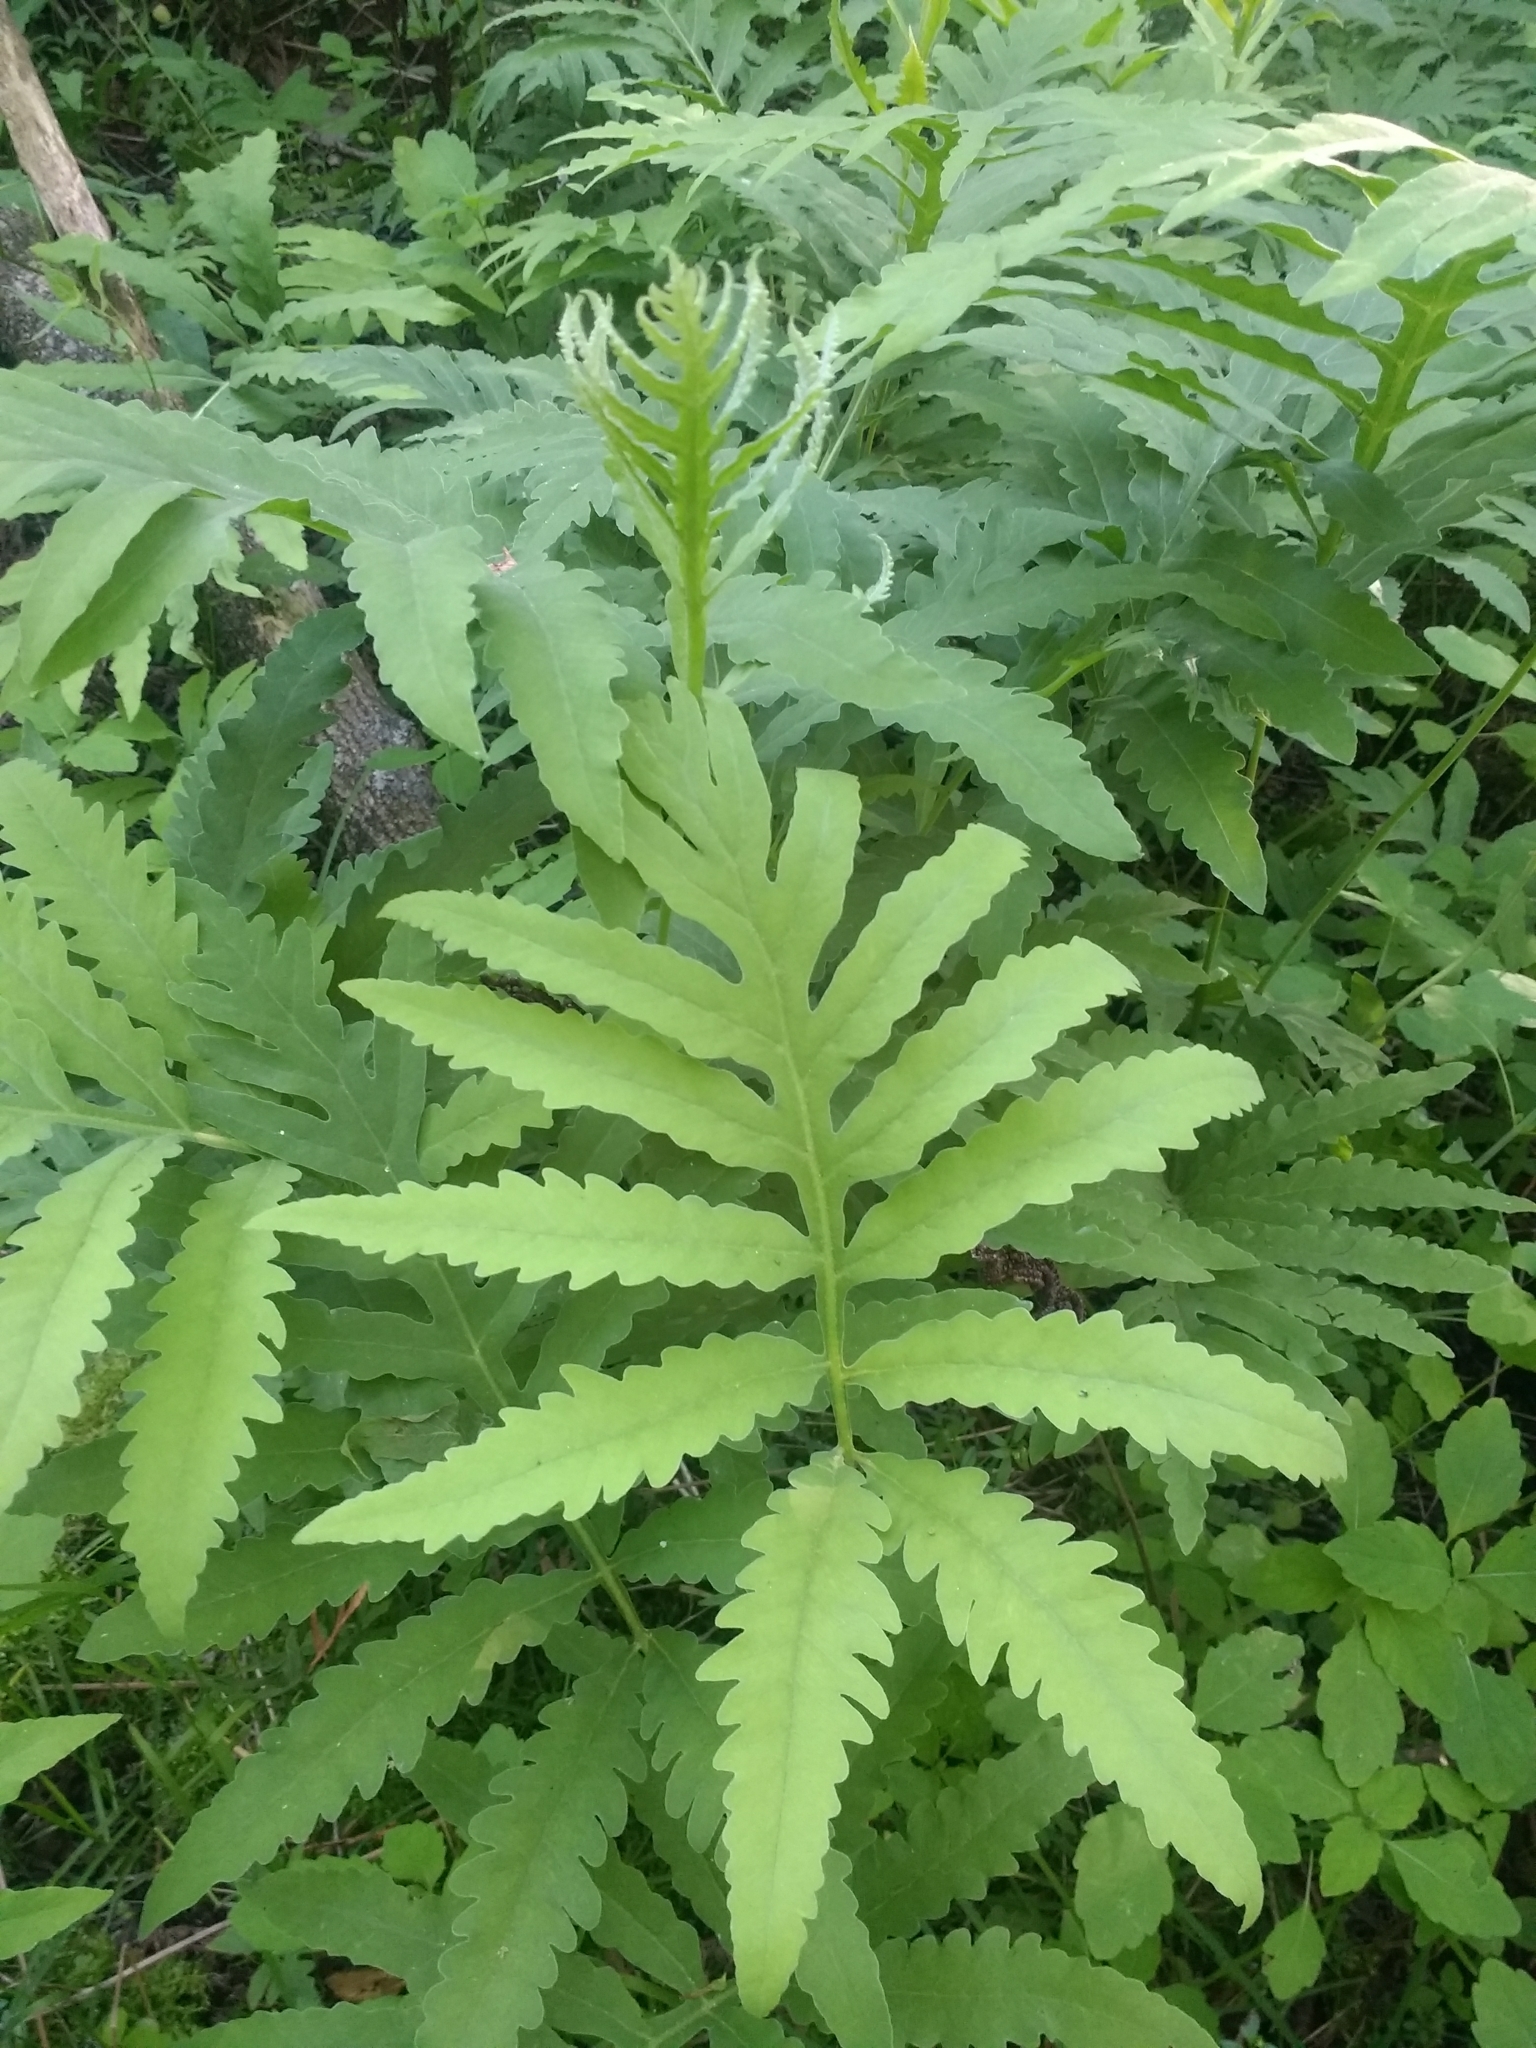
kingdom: Plantae
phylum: Tracheophyta
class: Polypodiopsida
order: Polypodiales
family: Onocleaceae
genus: Onoclea
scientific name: Onoclea sensibilis
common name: Sensitive fern
